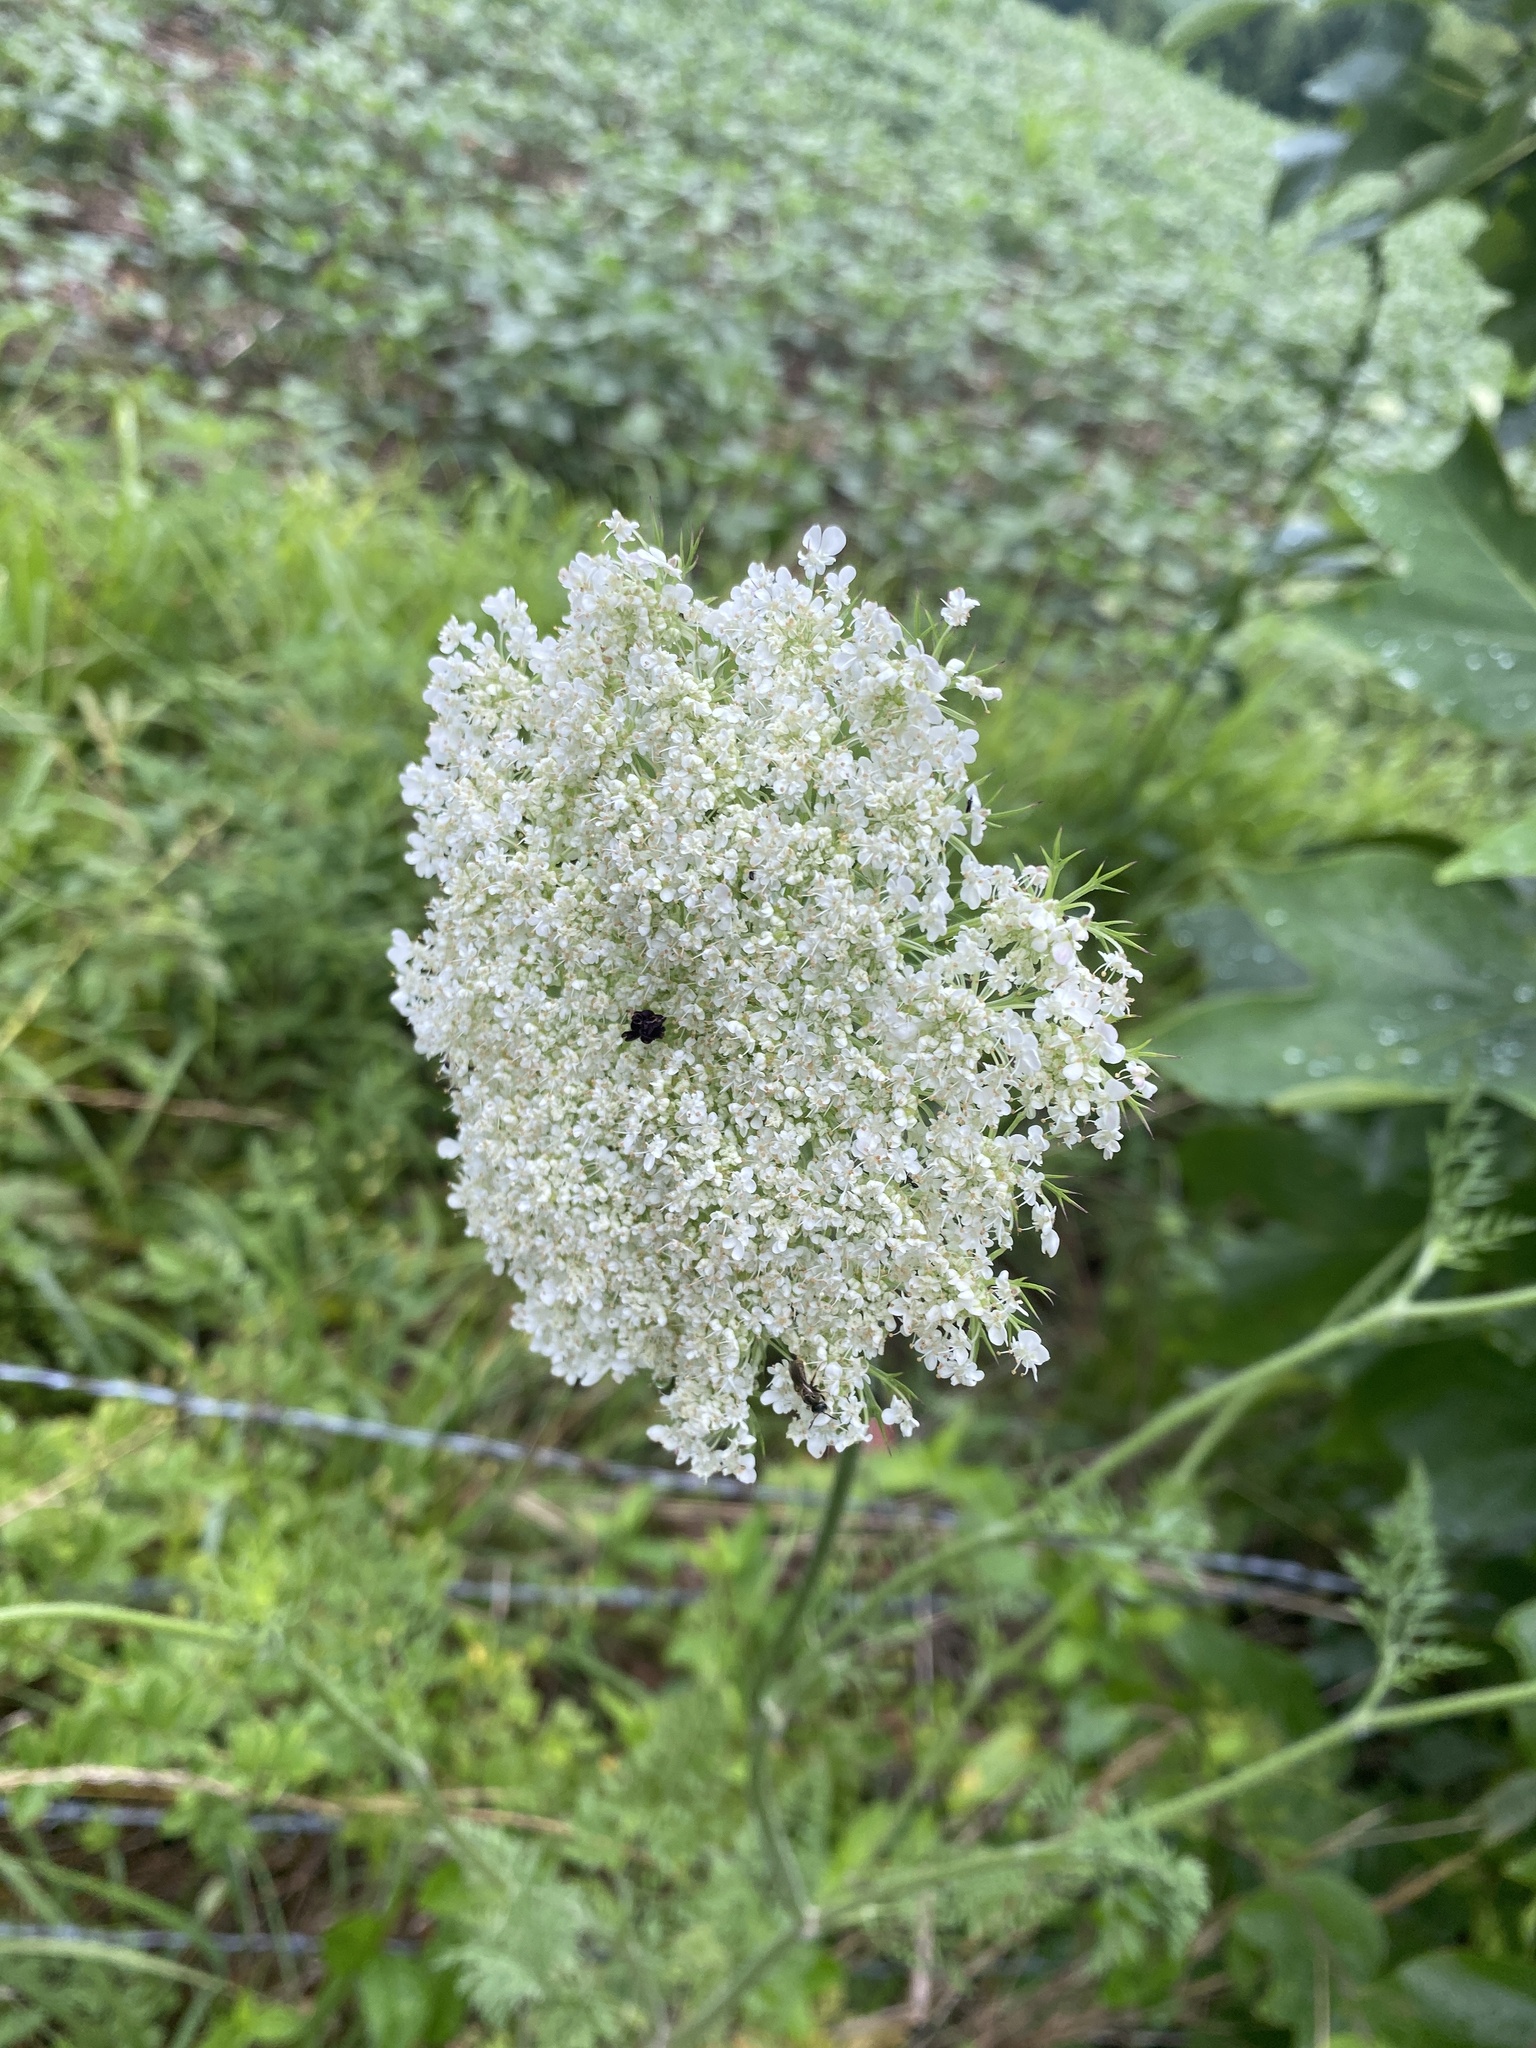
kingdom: Plantae
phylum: Tracheophyta
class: Magnoliopsida
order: Apiales
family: Apiaceae
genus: Daucus
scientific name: Daucus carota
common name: Wild carrot
